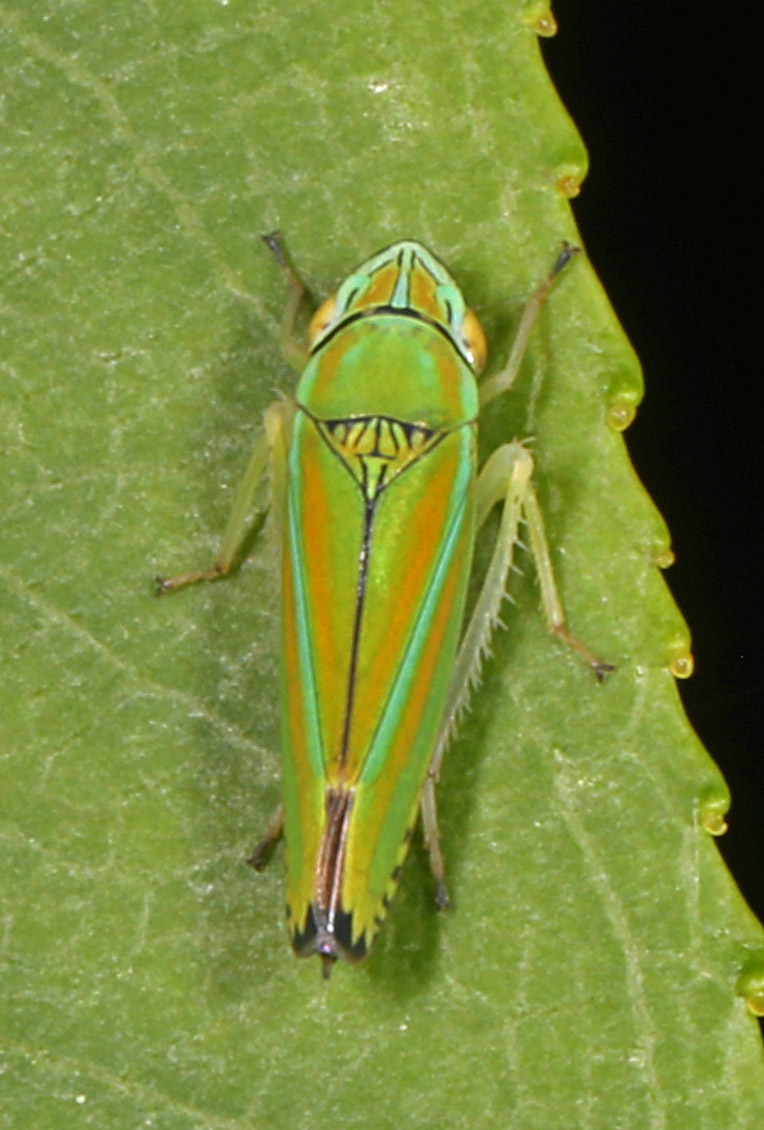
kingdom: Animalia
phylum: Arthropoda
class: Insecta
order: Hemiptera
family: Cicadellidae
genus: Graphocephala
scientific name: Graphocephala versuta
